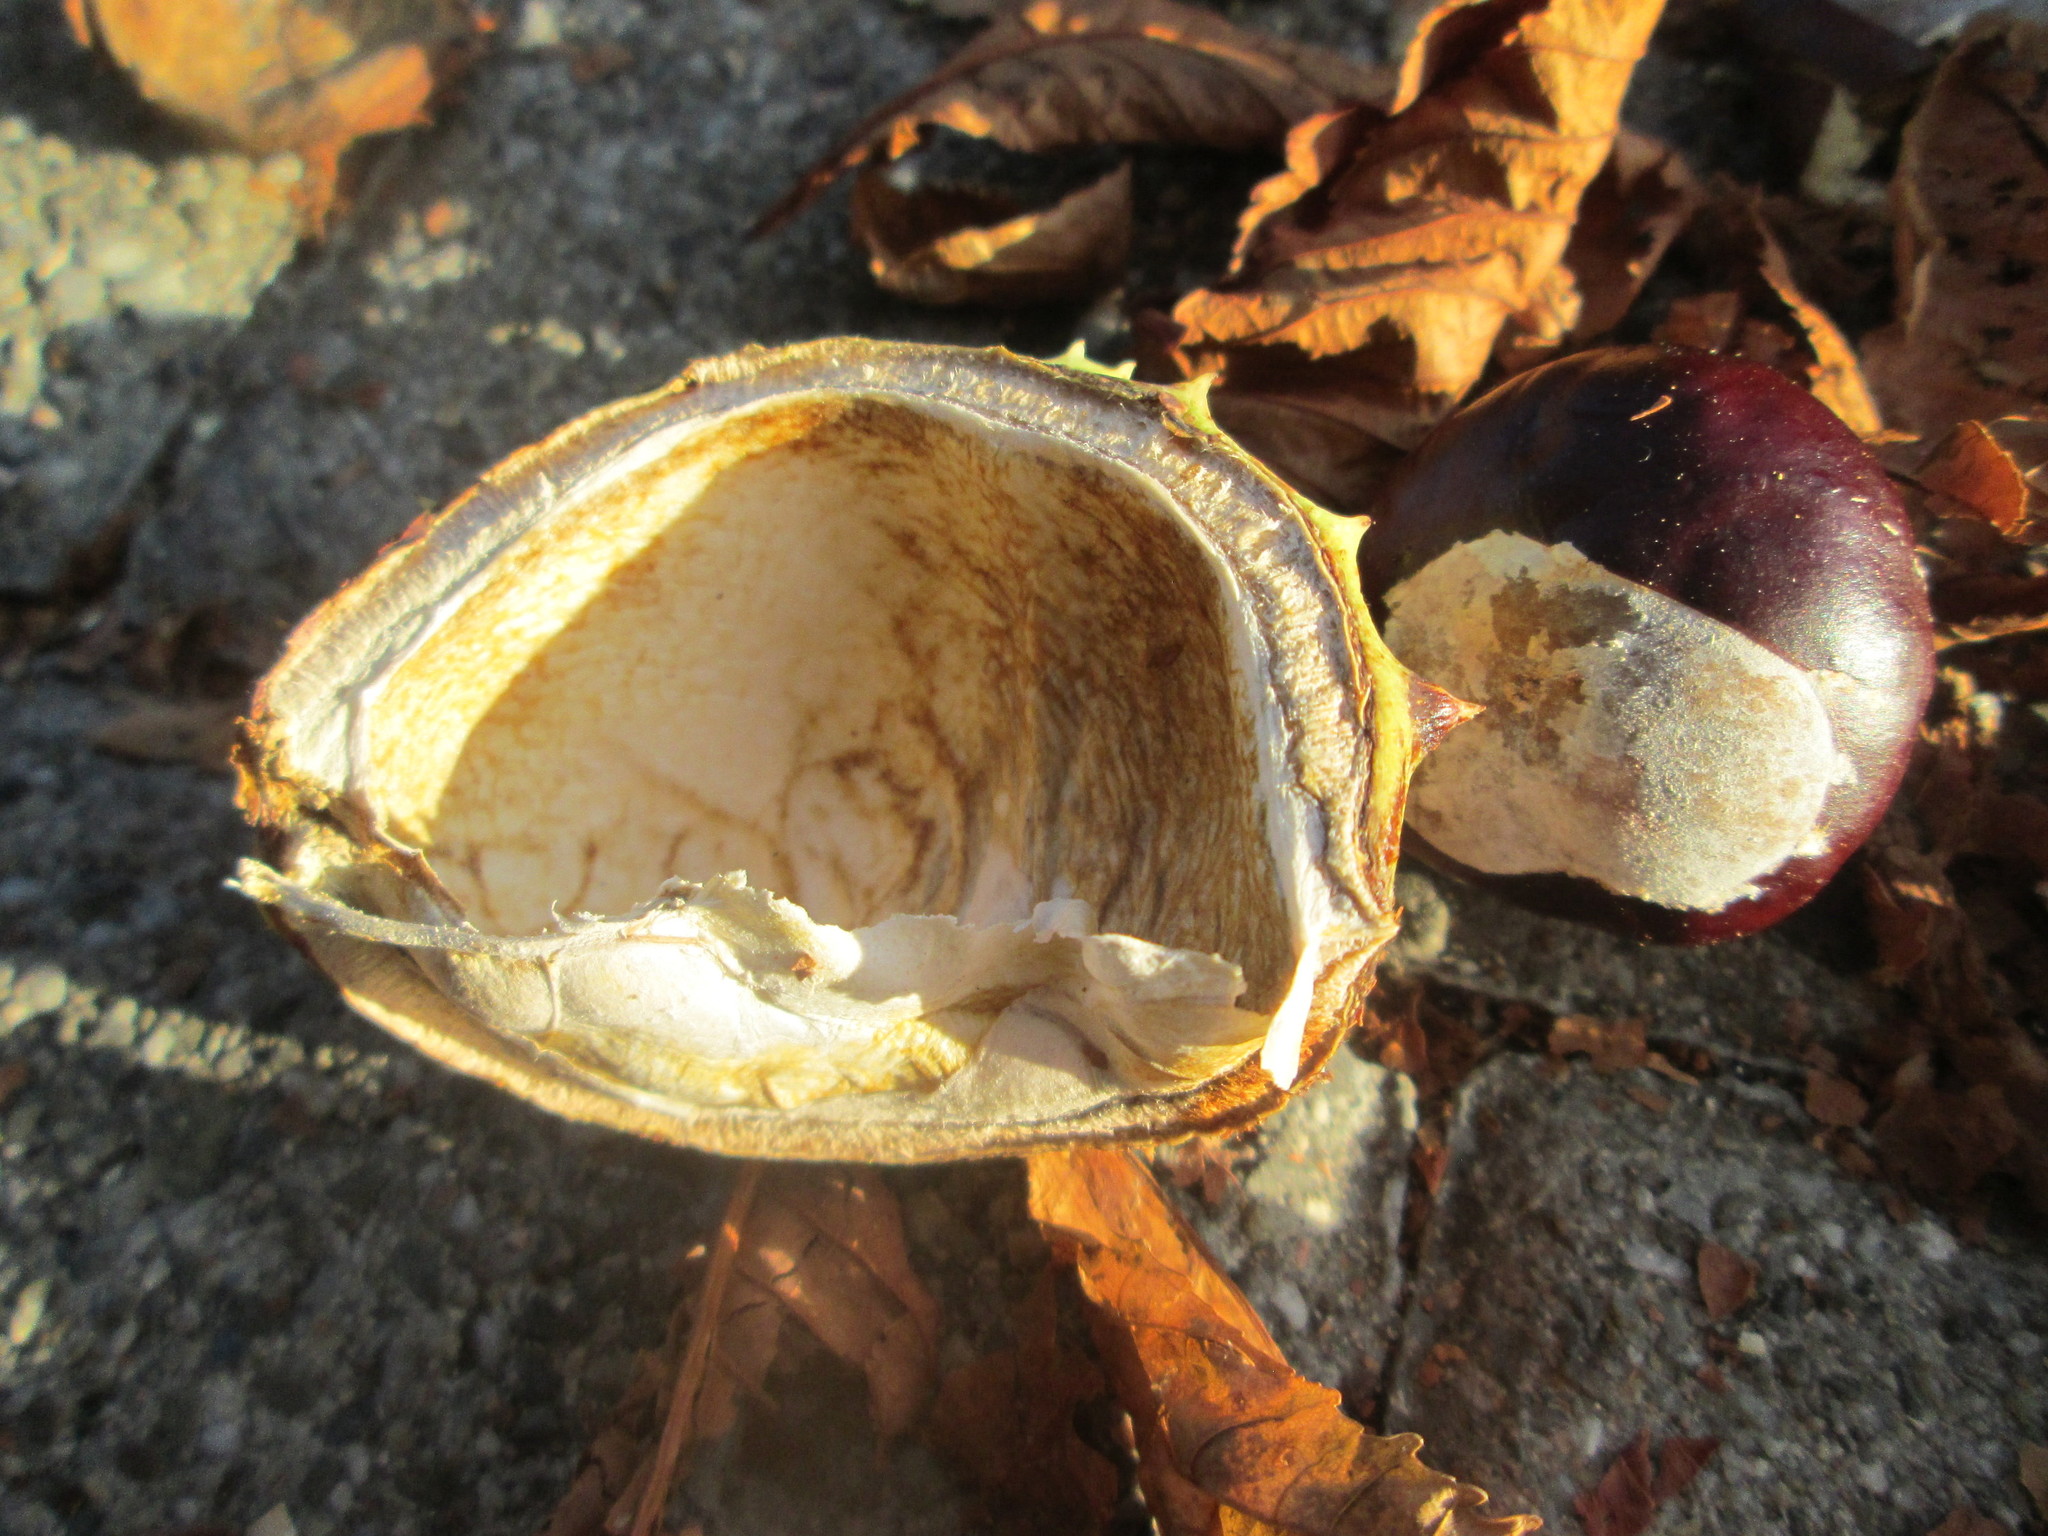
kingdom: Plantae
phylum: Tracheophyta
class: Magnoliopsida
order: Sapindales
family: Sapindaceae
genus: Aesculus
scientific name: Aesculus hippocastanum
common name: Horse-chestnut
